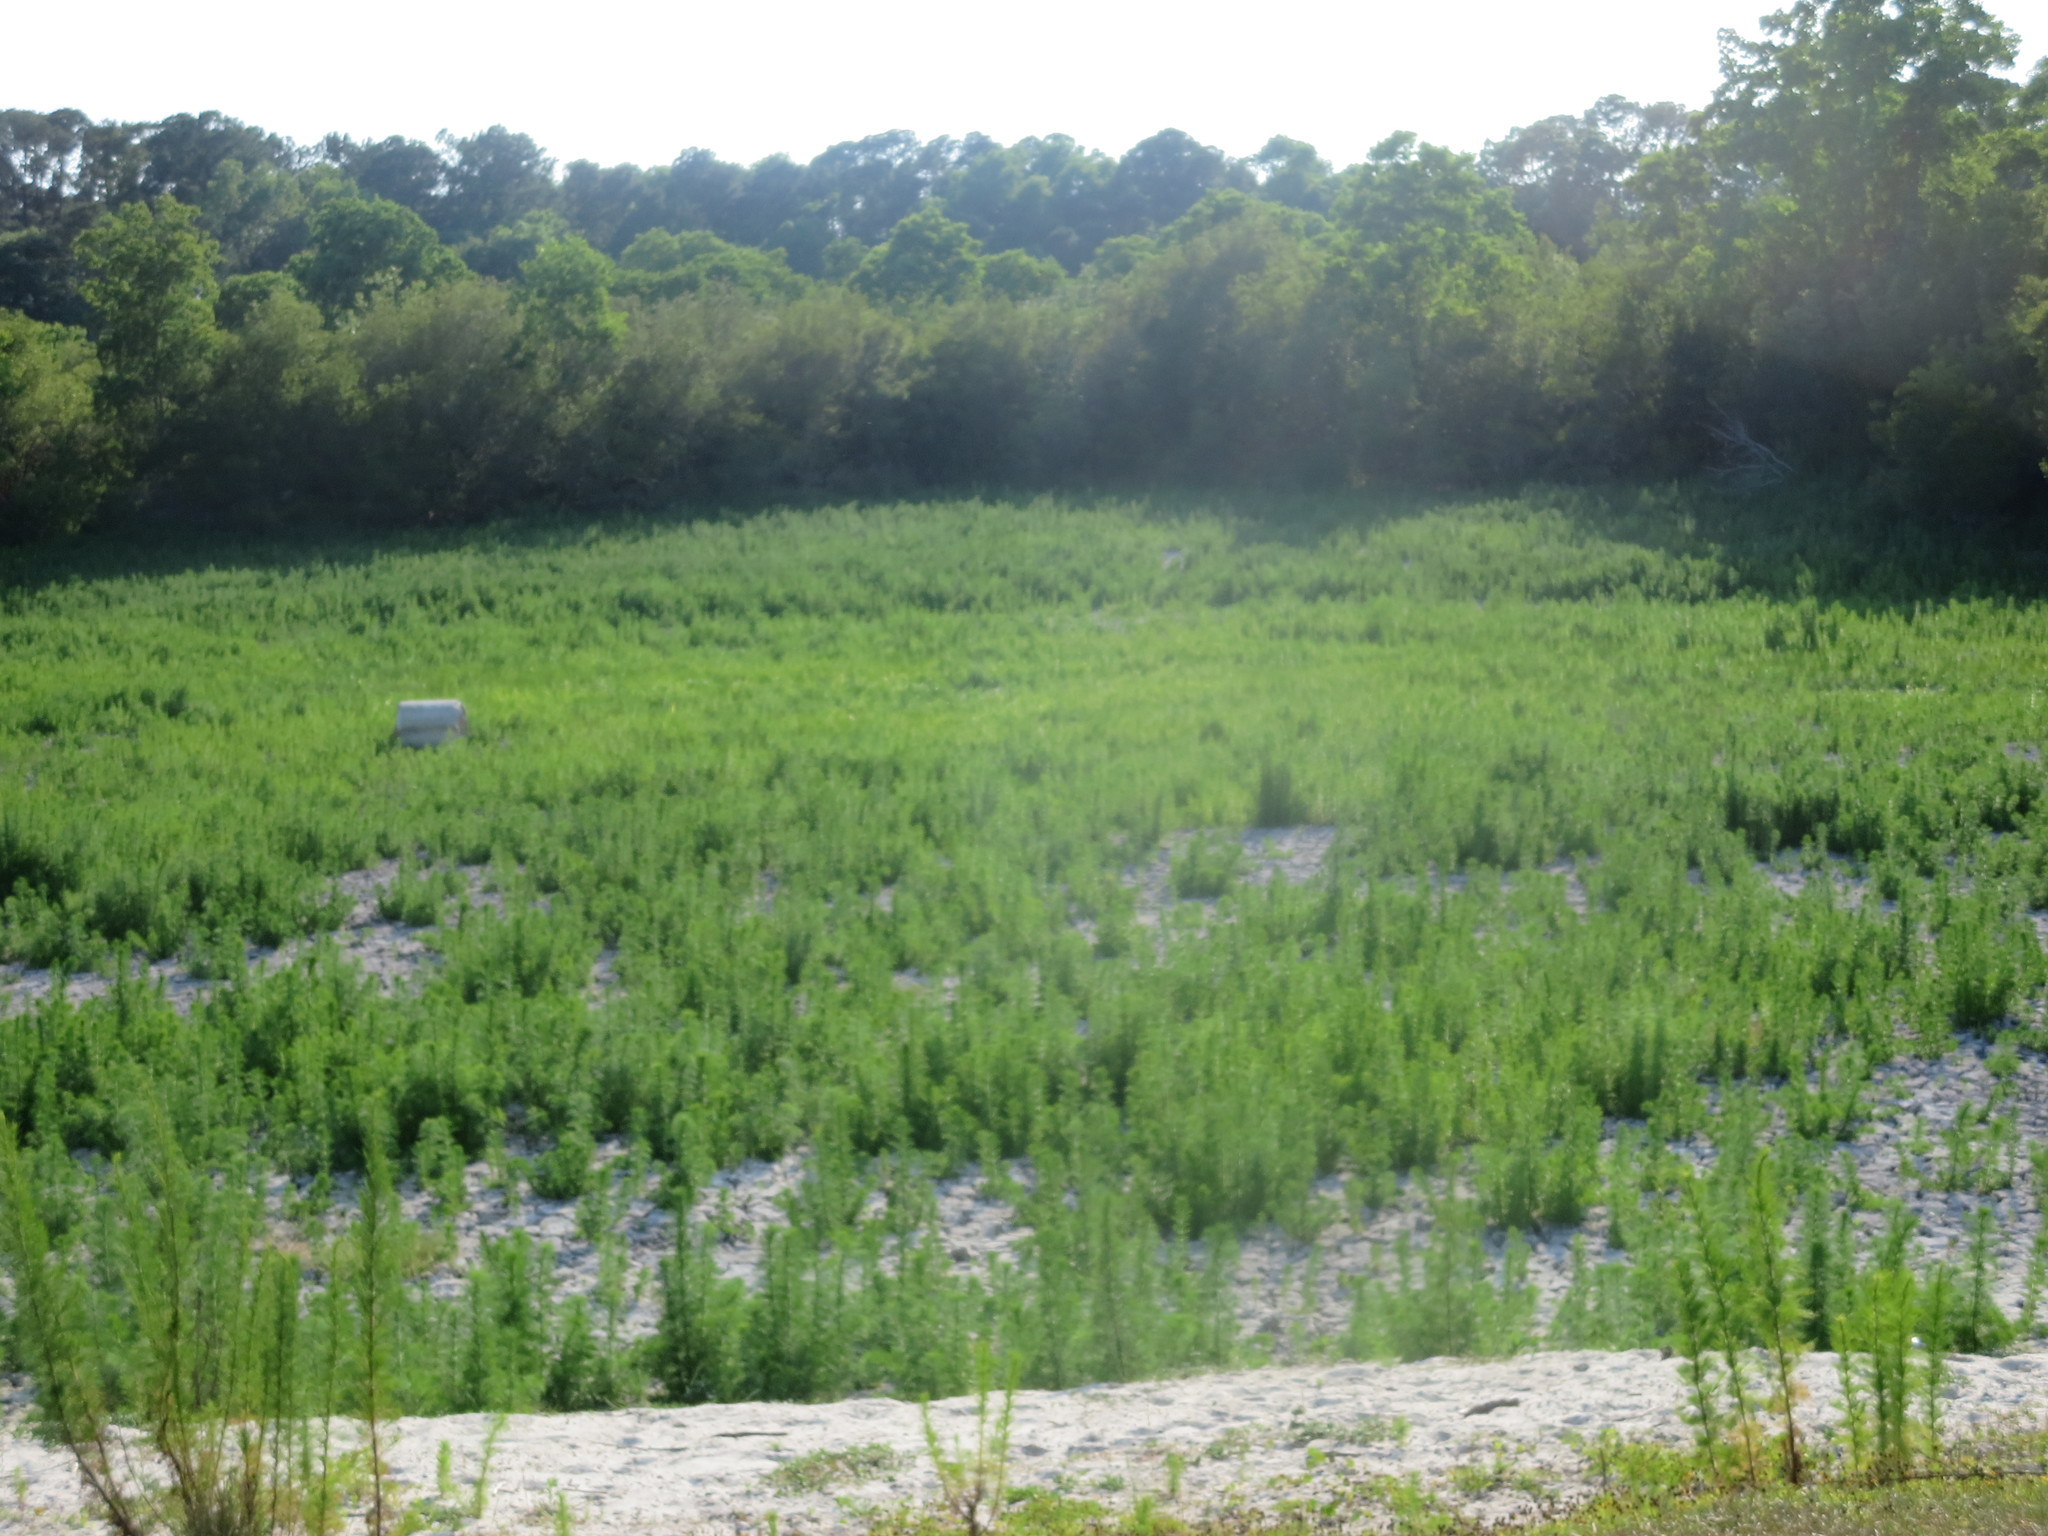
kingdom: Plantae
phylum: Tracheophyta
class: Magnoliopsida
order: Asterales
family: Asteraceae
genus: Eupatorium
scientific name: Eupatorium capillifolium
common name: Dog-fennel
